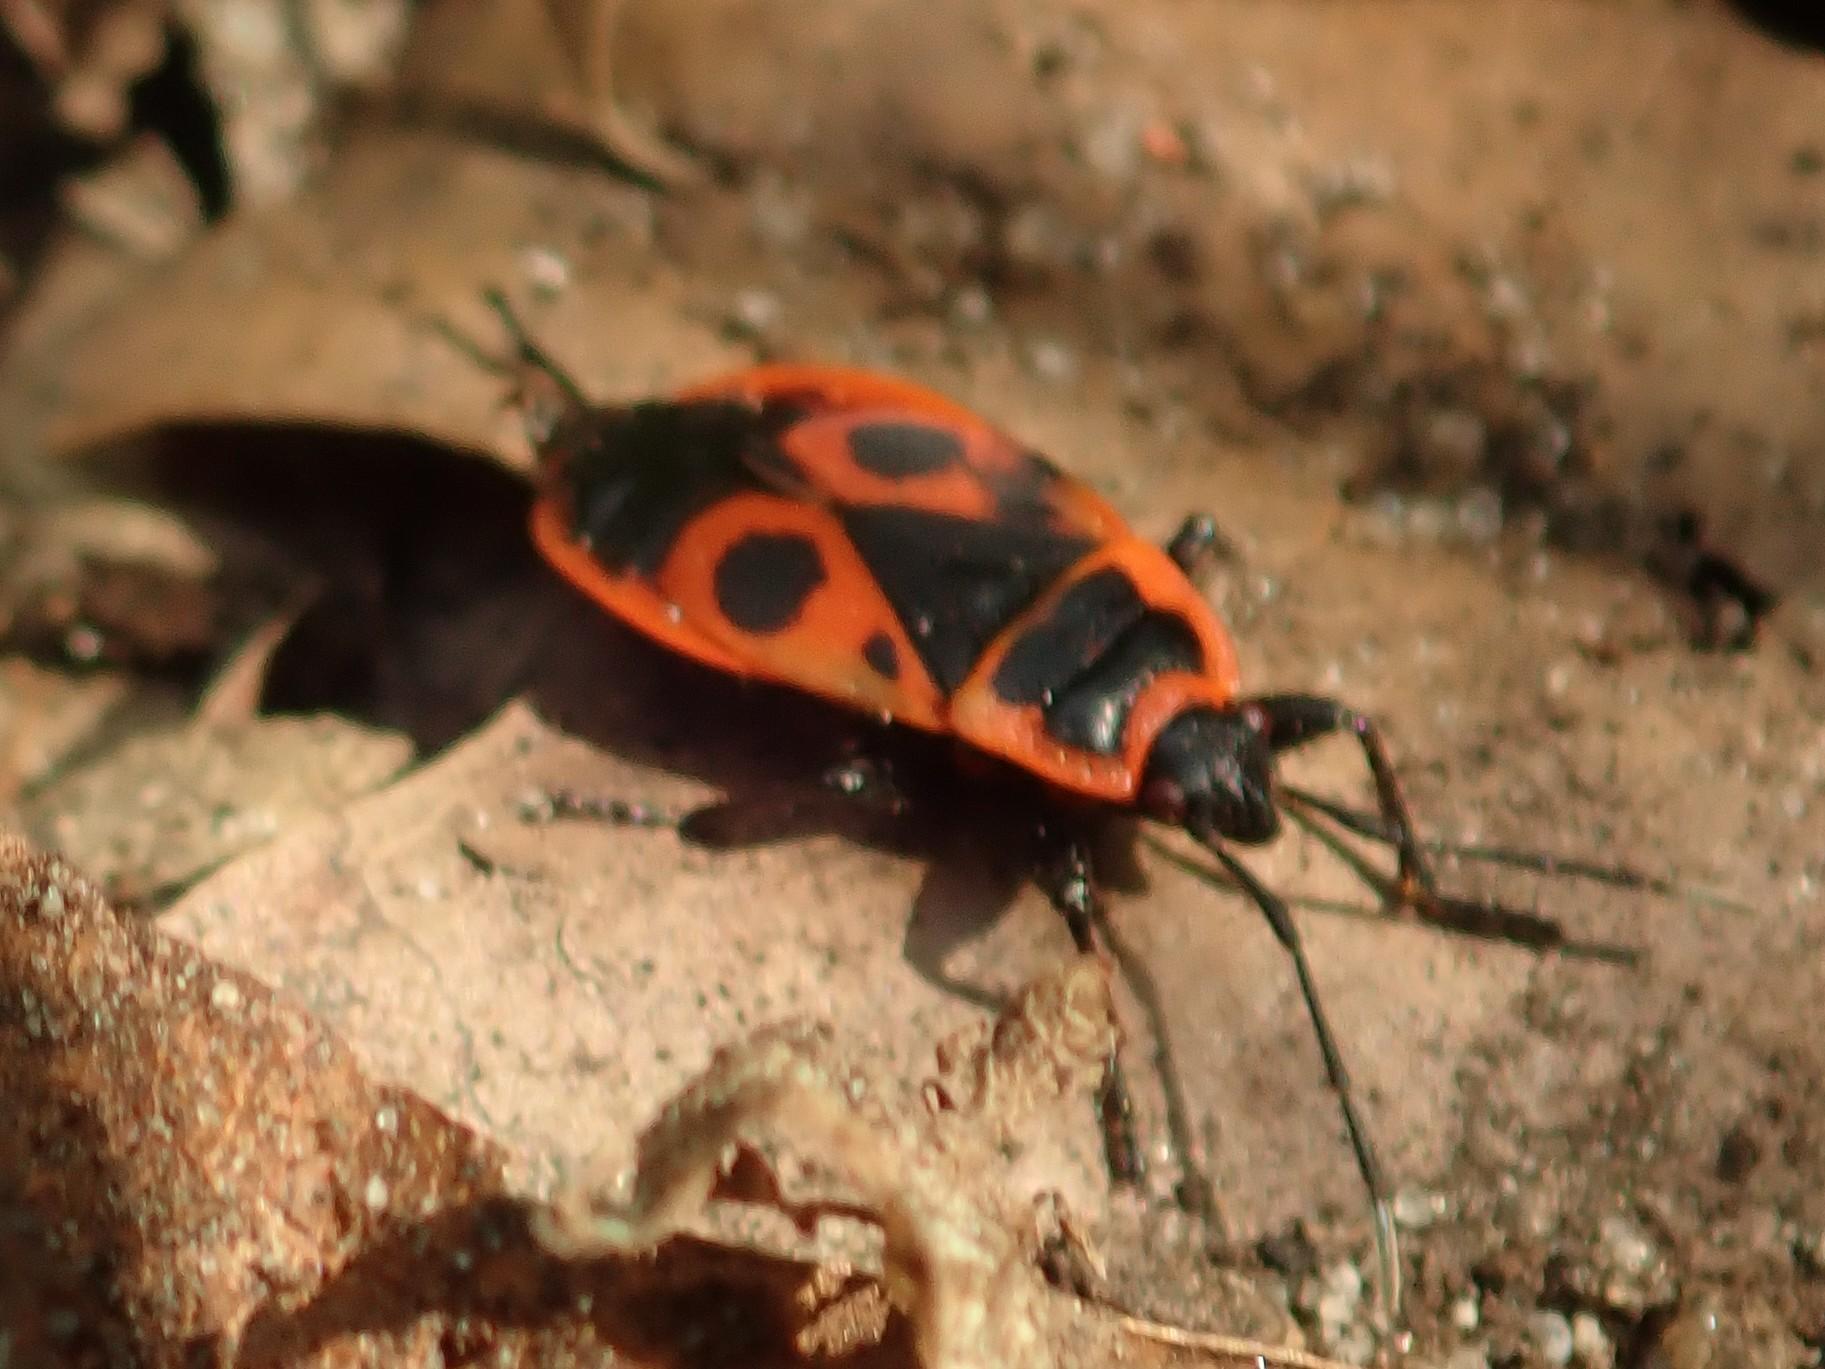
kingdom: Animalia
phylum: Arthropoda
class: Insecta
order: Hemiptera
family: Pyrrhocoridae
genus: Pyrrhocoris
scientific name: Pyrrhocoris apterus
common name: Firebug
